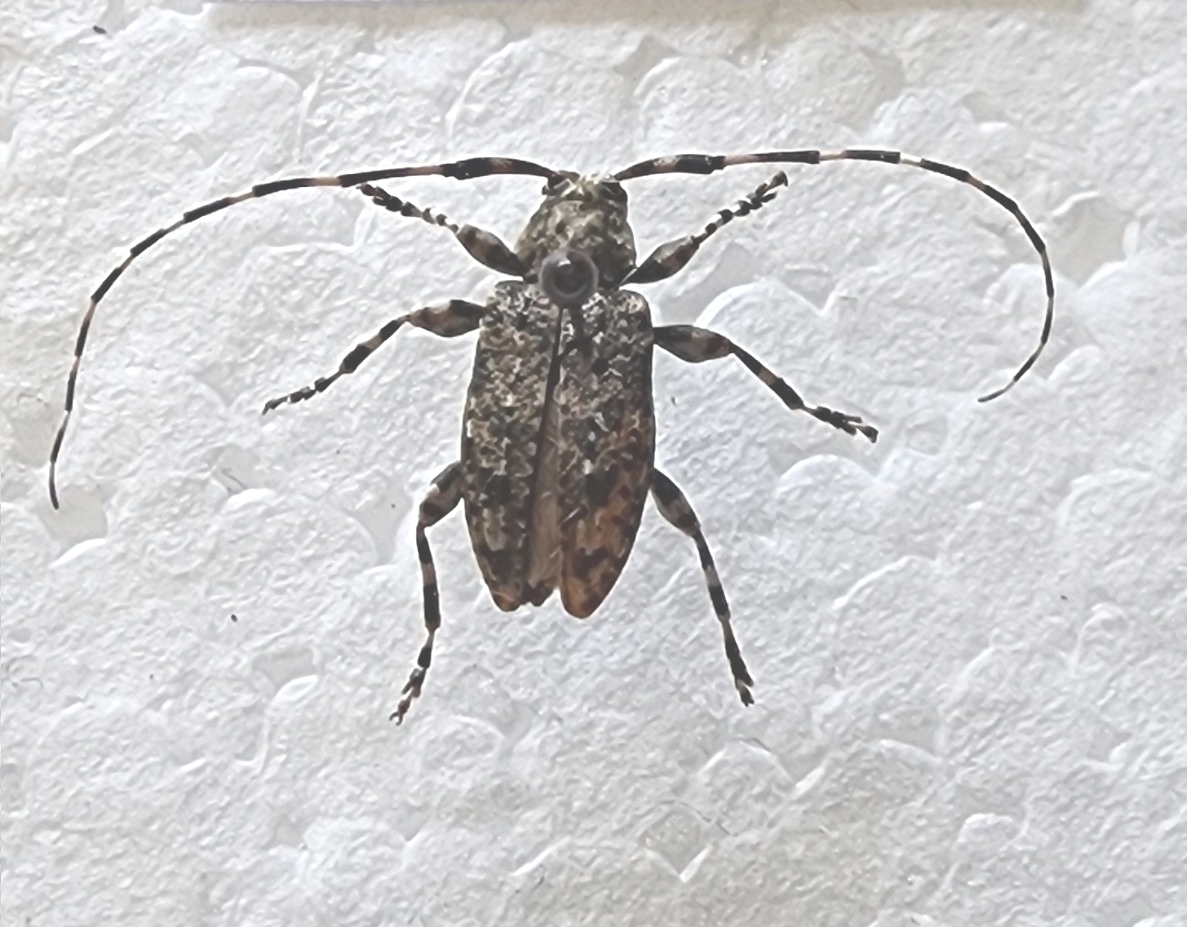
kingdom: Animalia
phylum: Arthropoda
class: Insecta
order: Coleoptera
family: Cerambycidae
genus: Astyleiopus
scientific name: Astyleiopus variegatus
